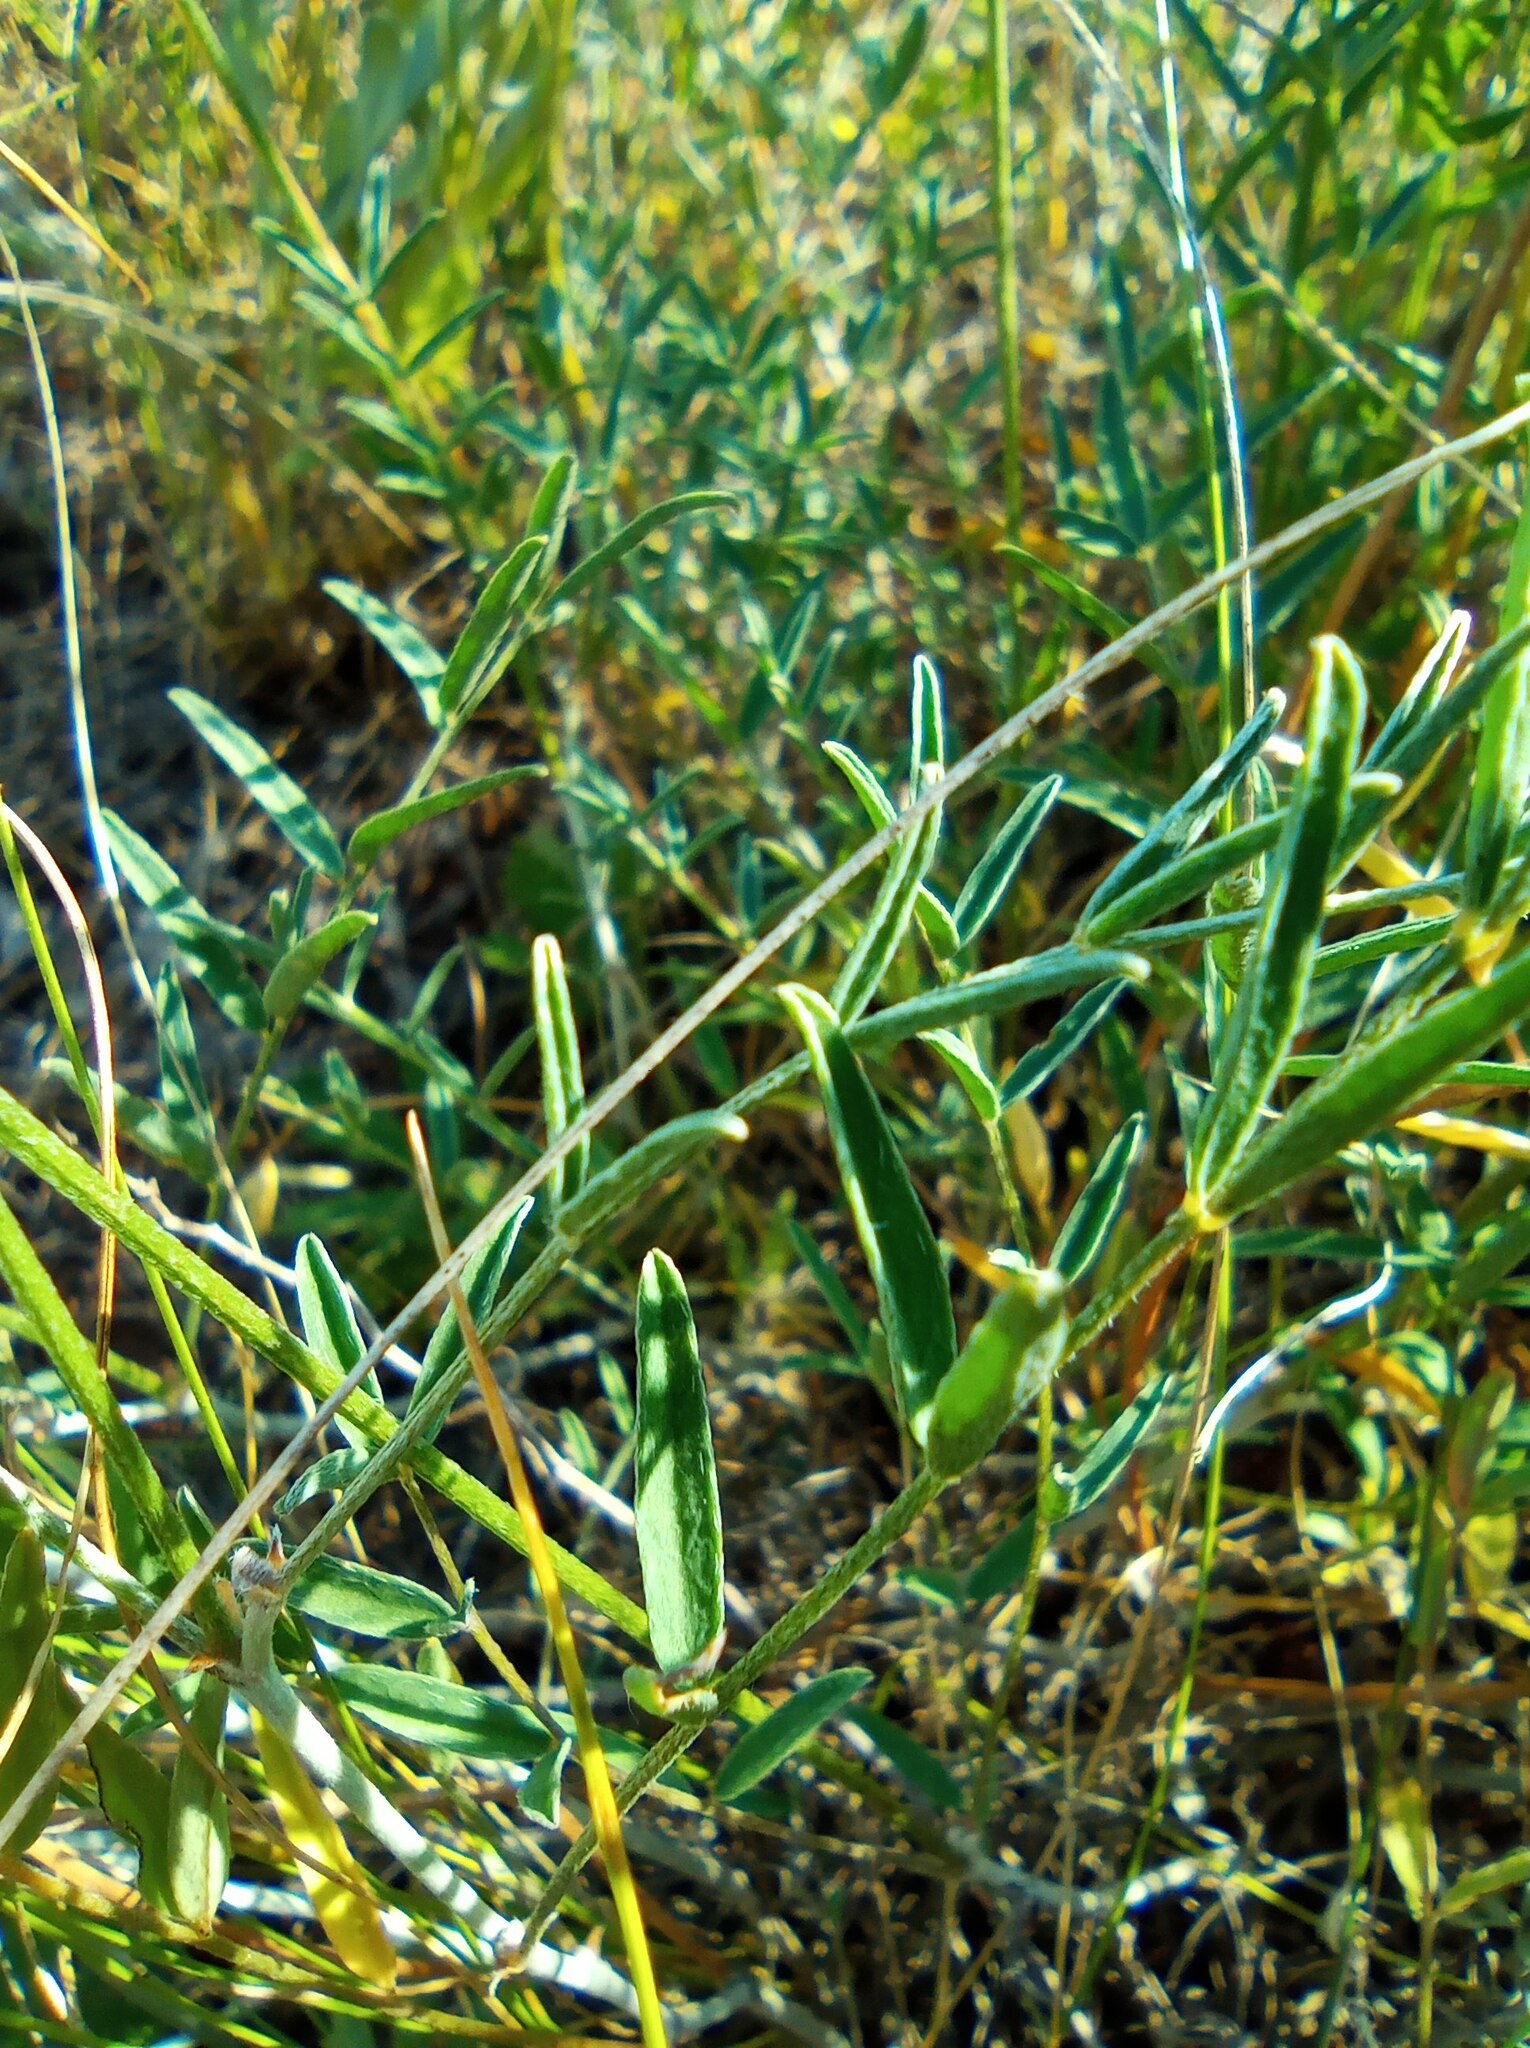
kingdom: Plantae
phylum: Tracheophyta
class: Magnoliopsida
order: Fabales
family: Fabaceae
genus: Astragalus
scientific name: Astragalus zingeri
